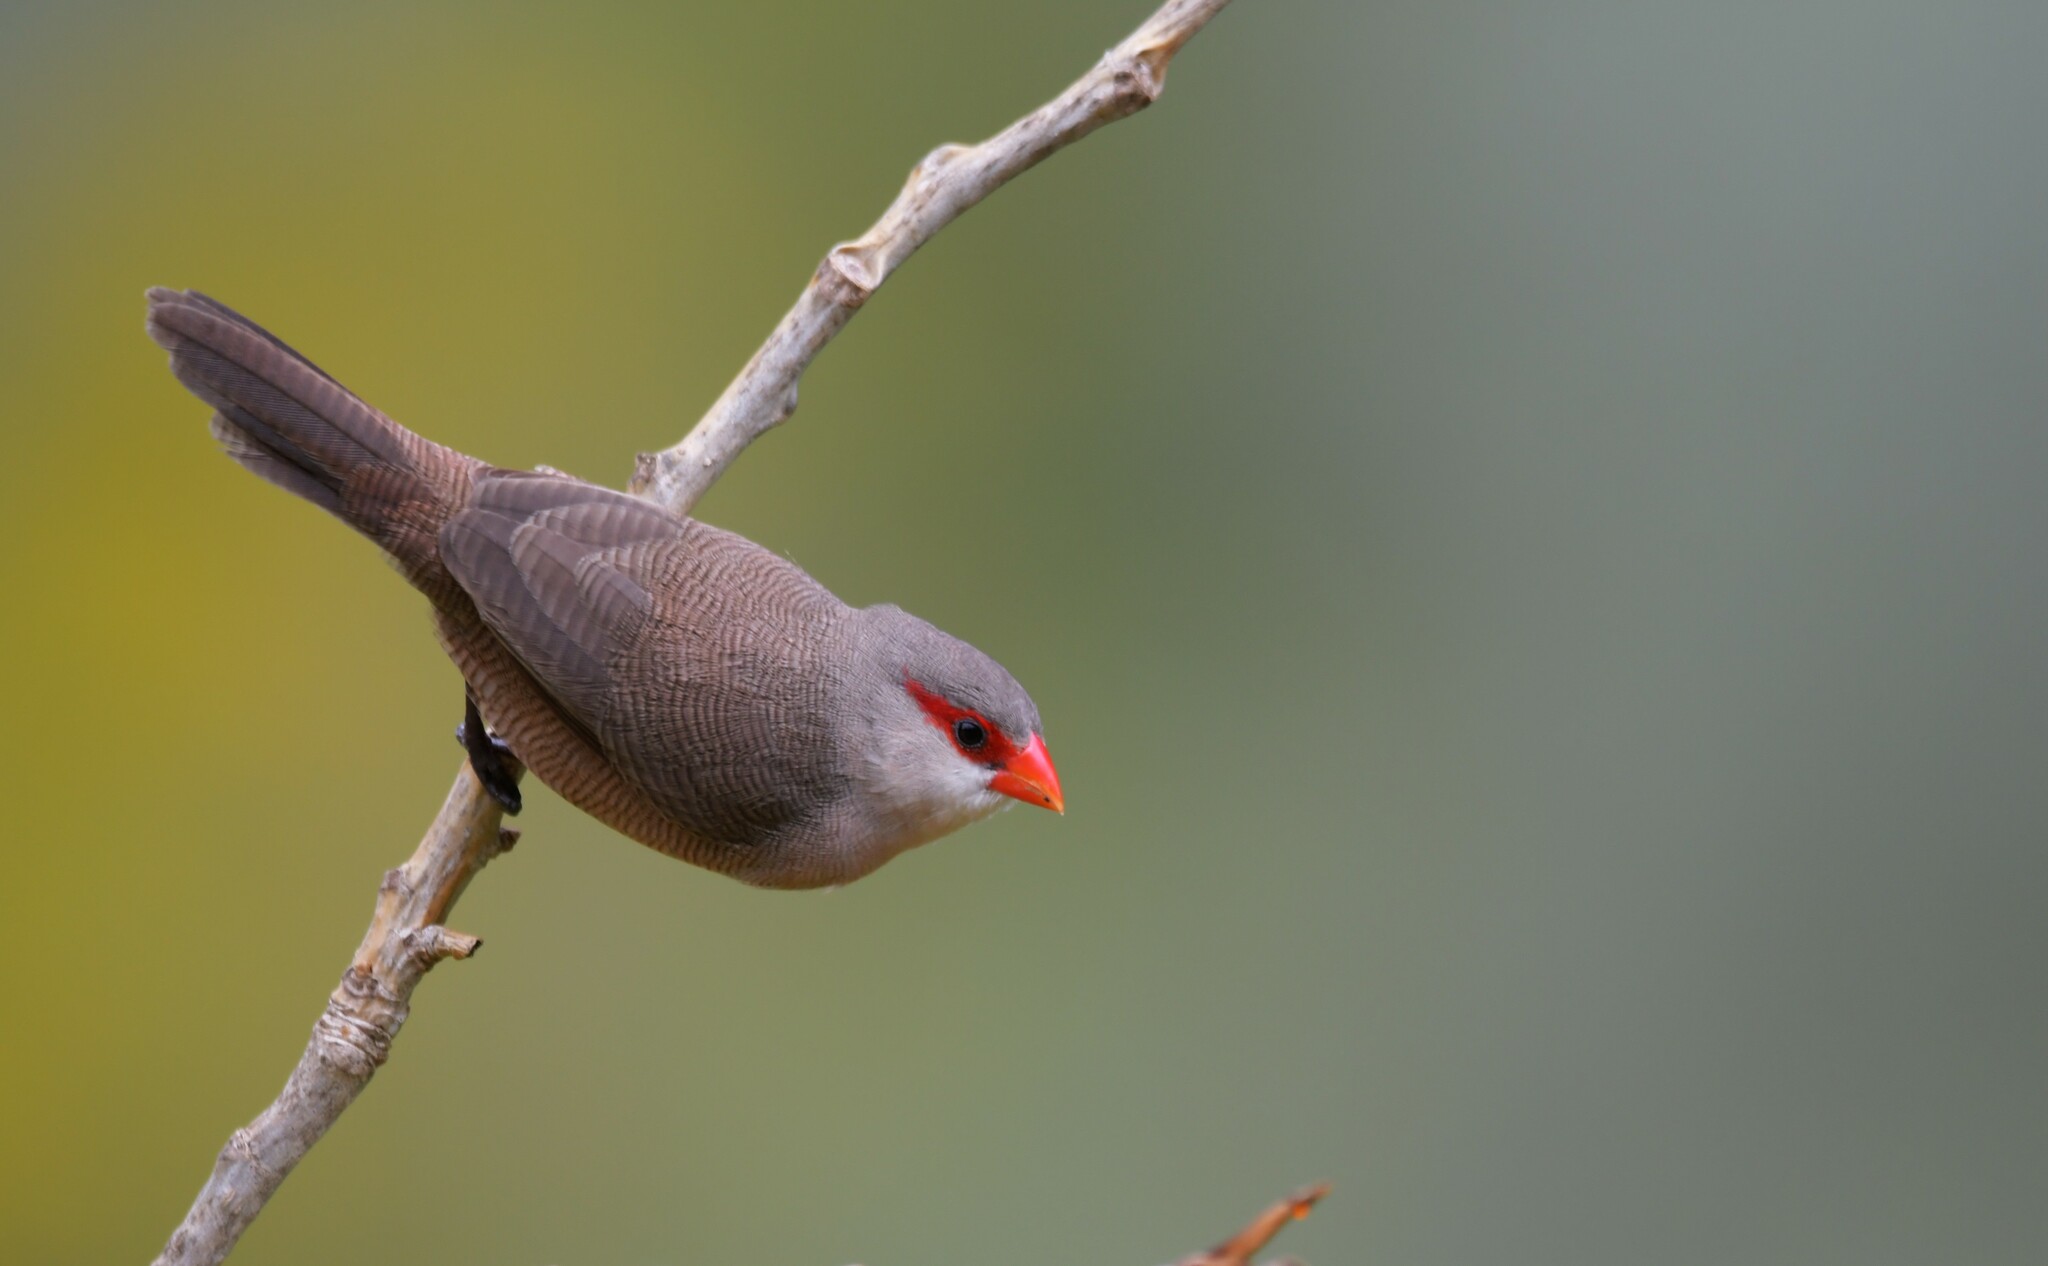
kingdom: Animalia
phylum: Chordata
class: Aves
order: Passeriformes
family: Estrildidae
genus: Estrilda
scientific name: Estrilda astrild
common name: Common waxbill
